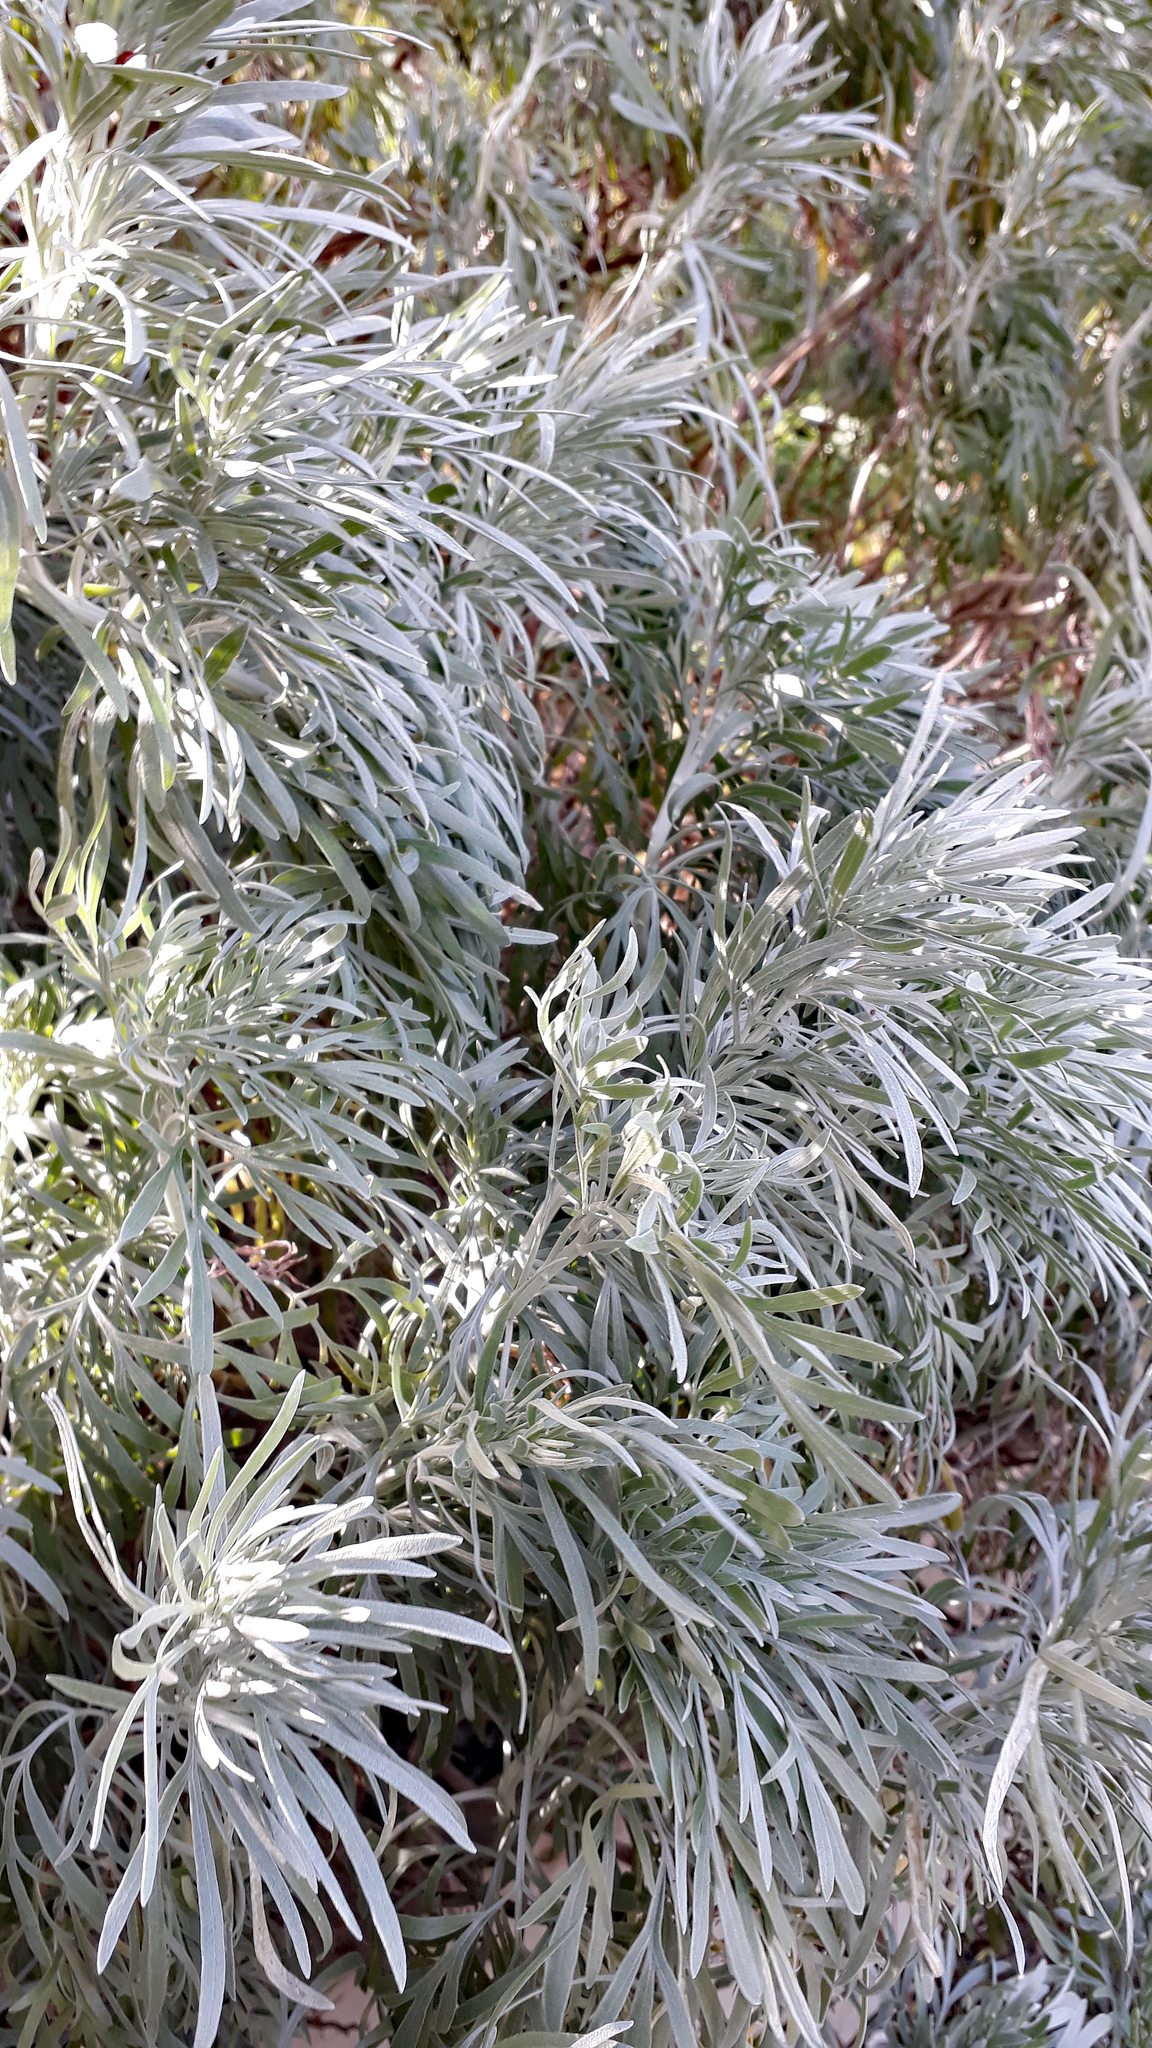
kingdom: Plantae
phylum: Tracheophyta
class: Magnoliopsida
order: Asterales
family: Asteraceae
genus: Artemisia
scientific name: Artemisia arborescens
